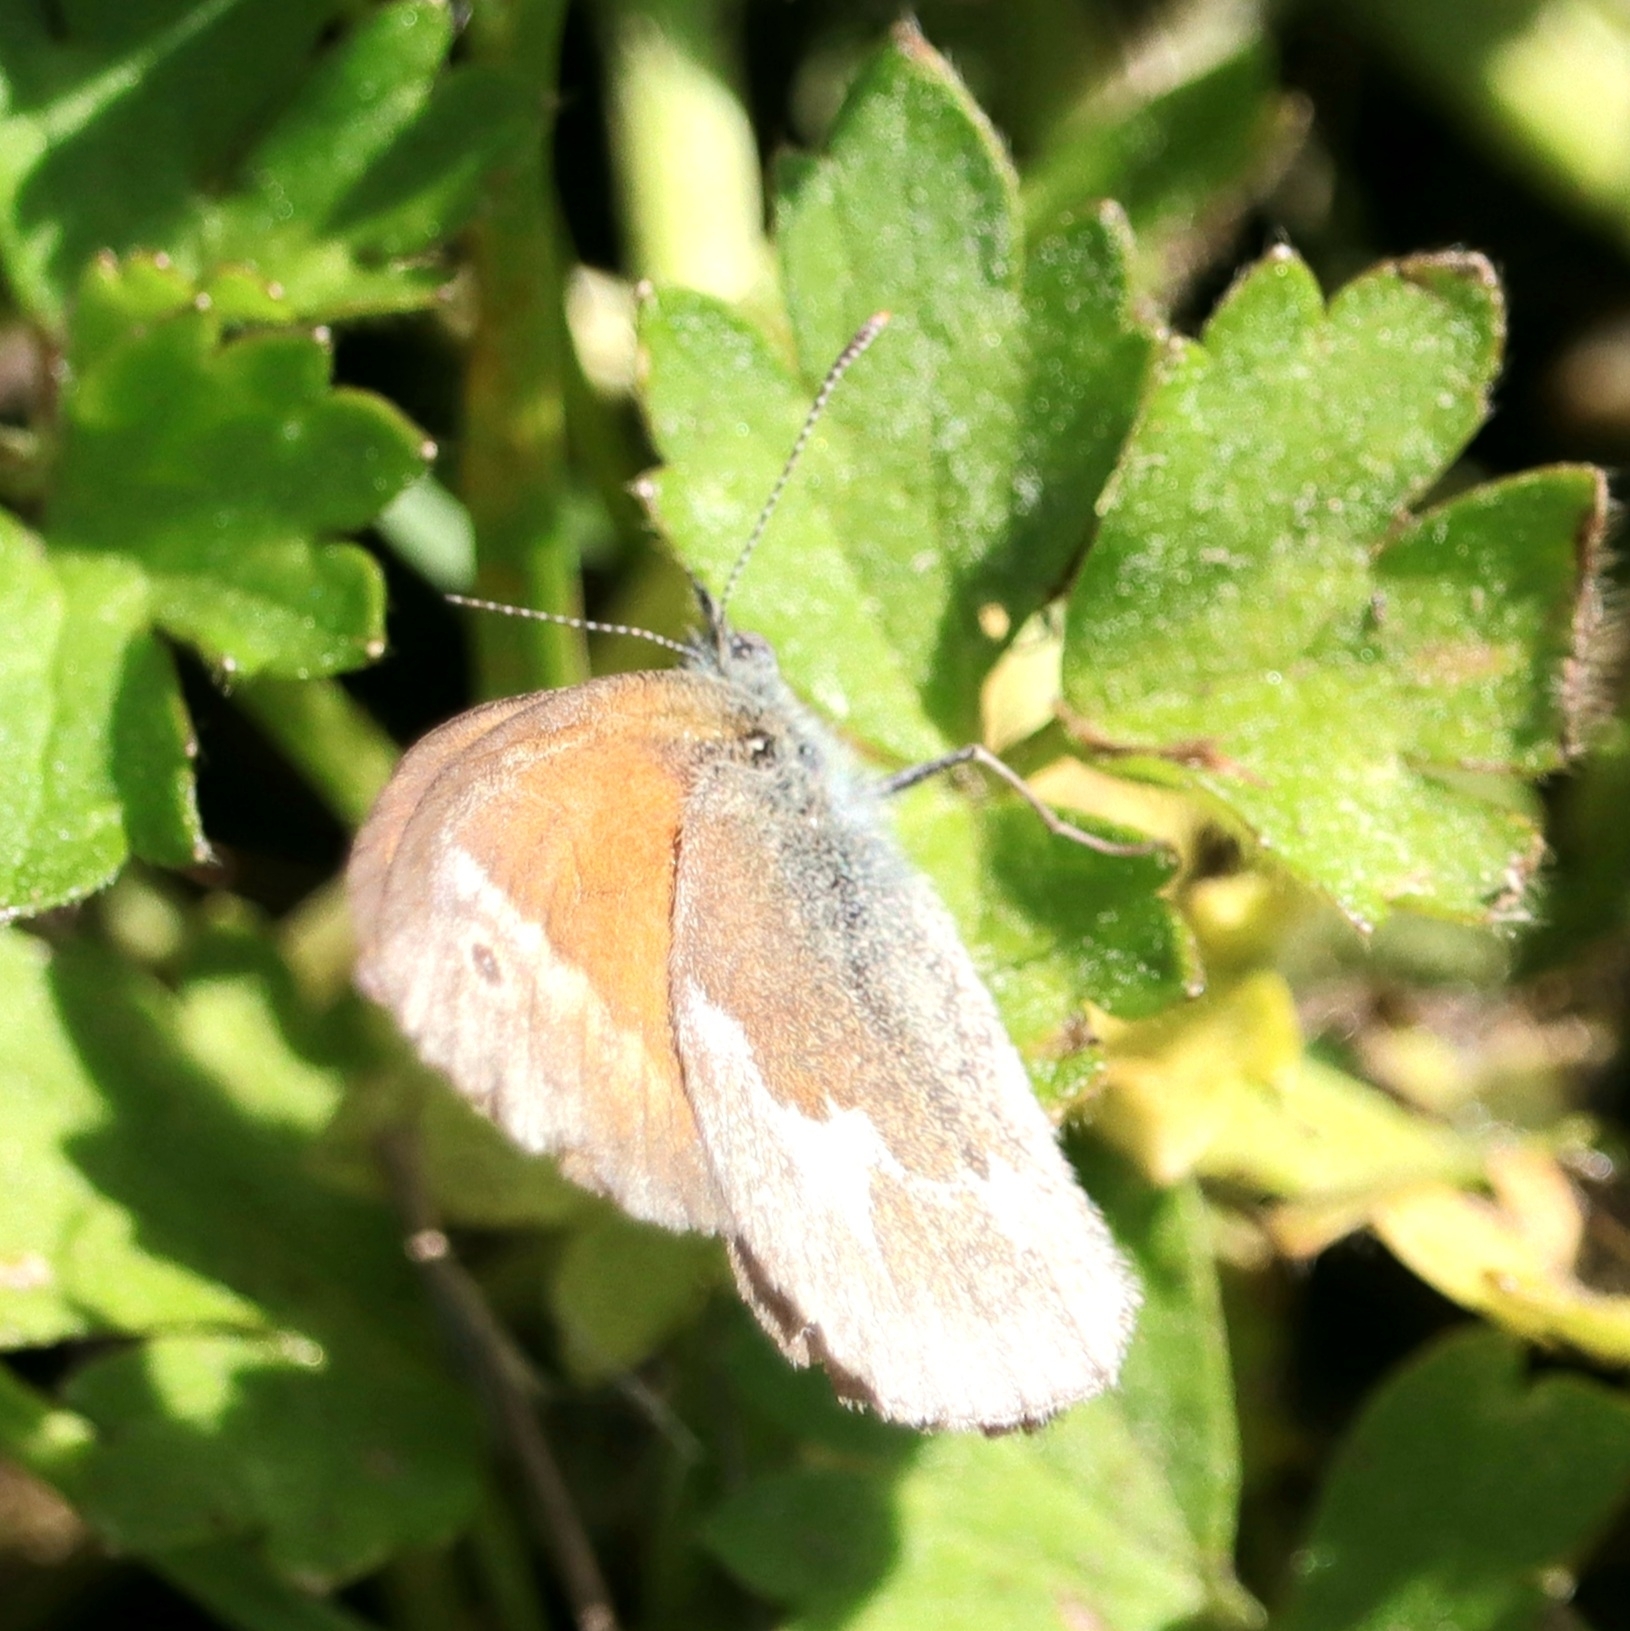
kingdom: Animalia
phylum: Arthropoda
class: Insecta
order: Lepidoptera
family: Nymphalidae
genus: Coenonympha
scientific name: Coenonympha california
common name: Common ringlet
